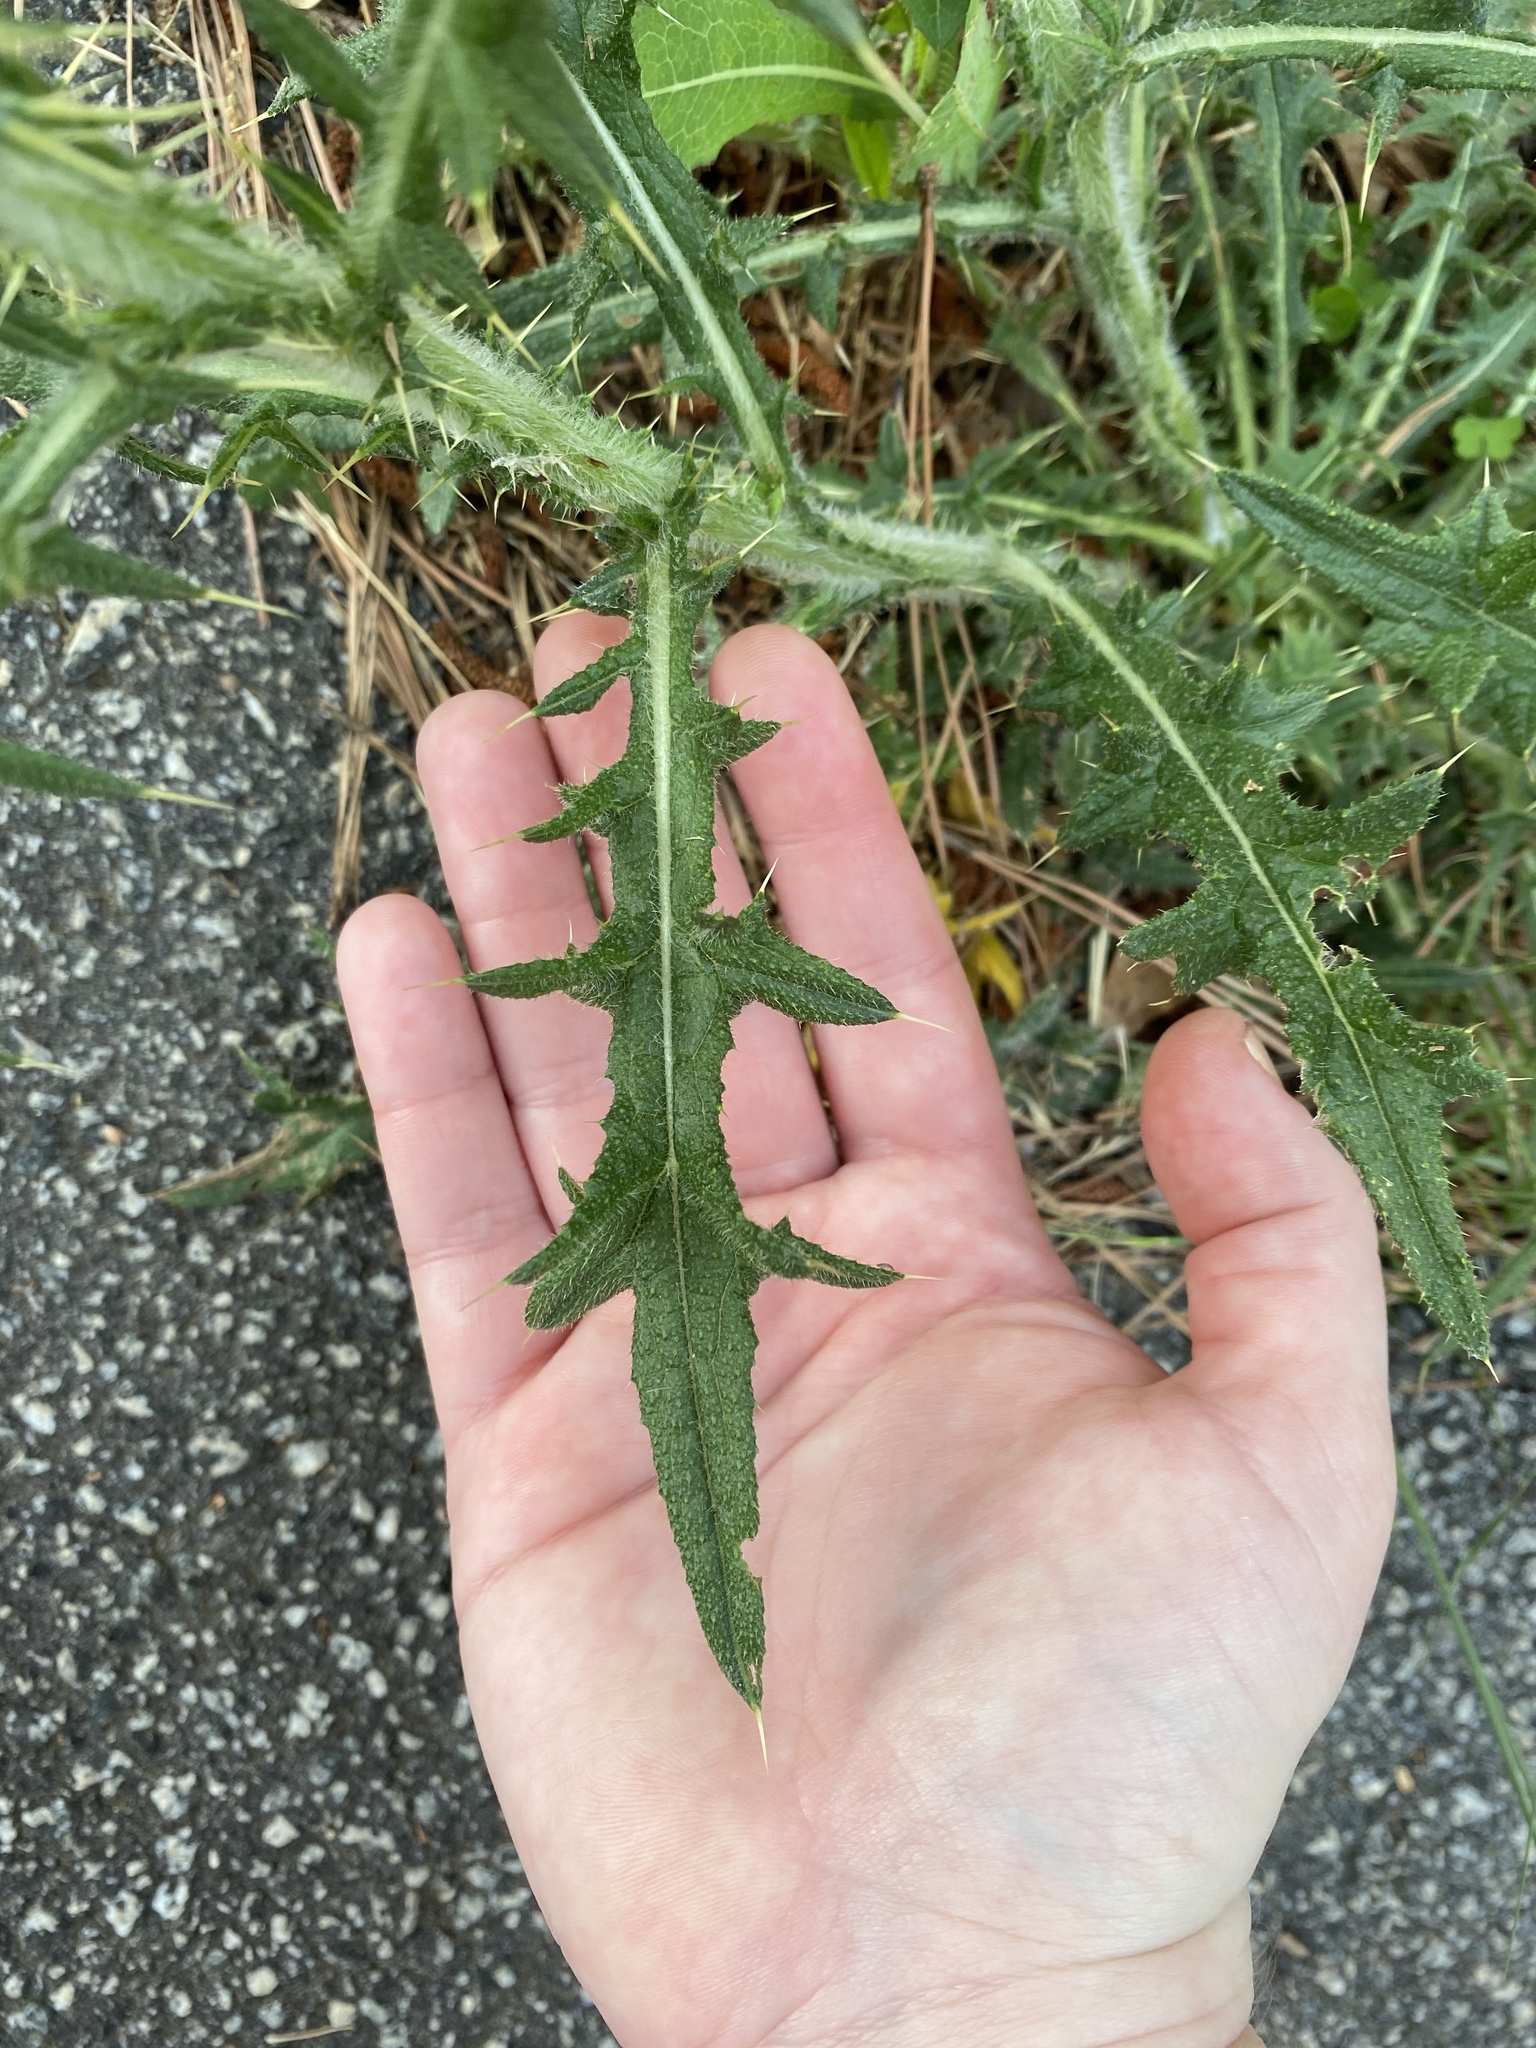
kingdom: Plantae
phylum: Tracheophyta
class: Magnoliopsida
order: Asterales
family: Asteraceae
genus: Cirsium
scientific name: Cirsium vulgare
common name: Bull thistle
